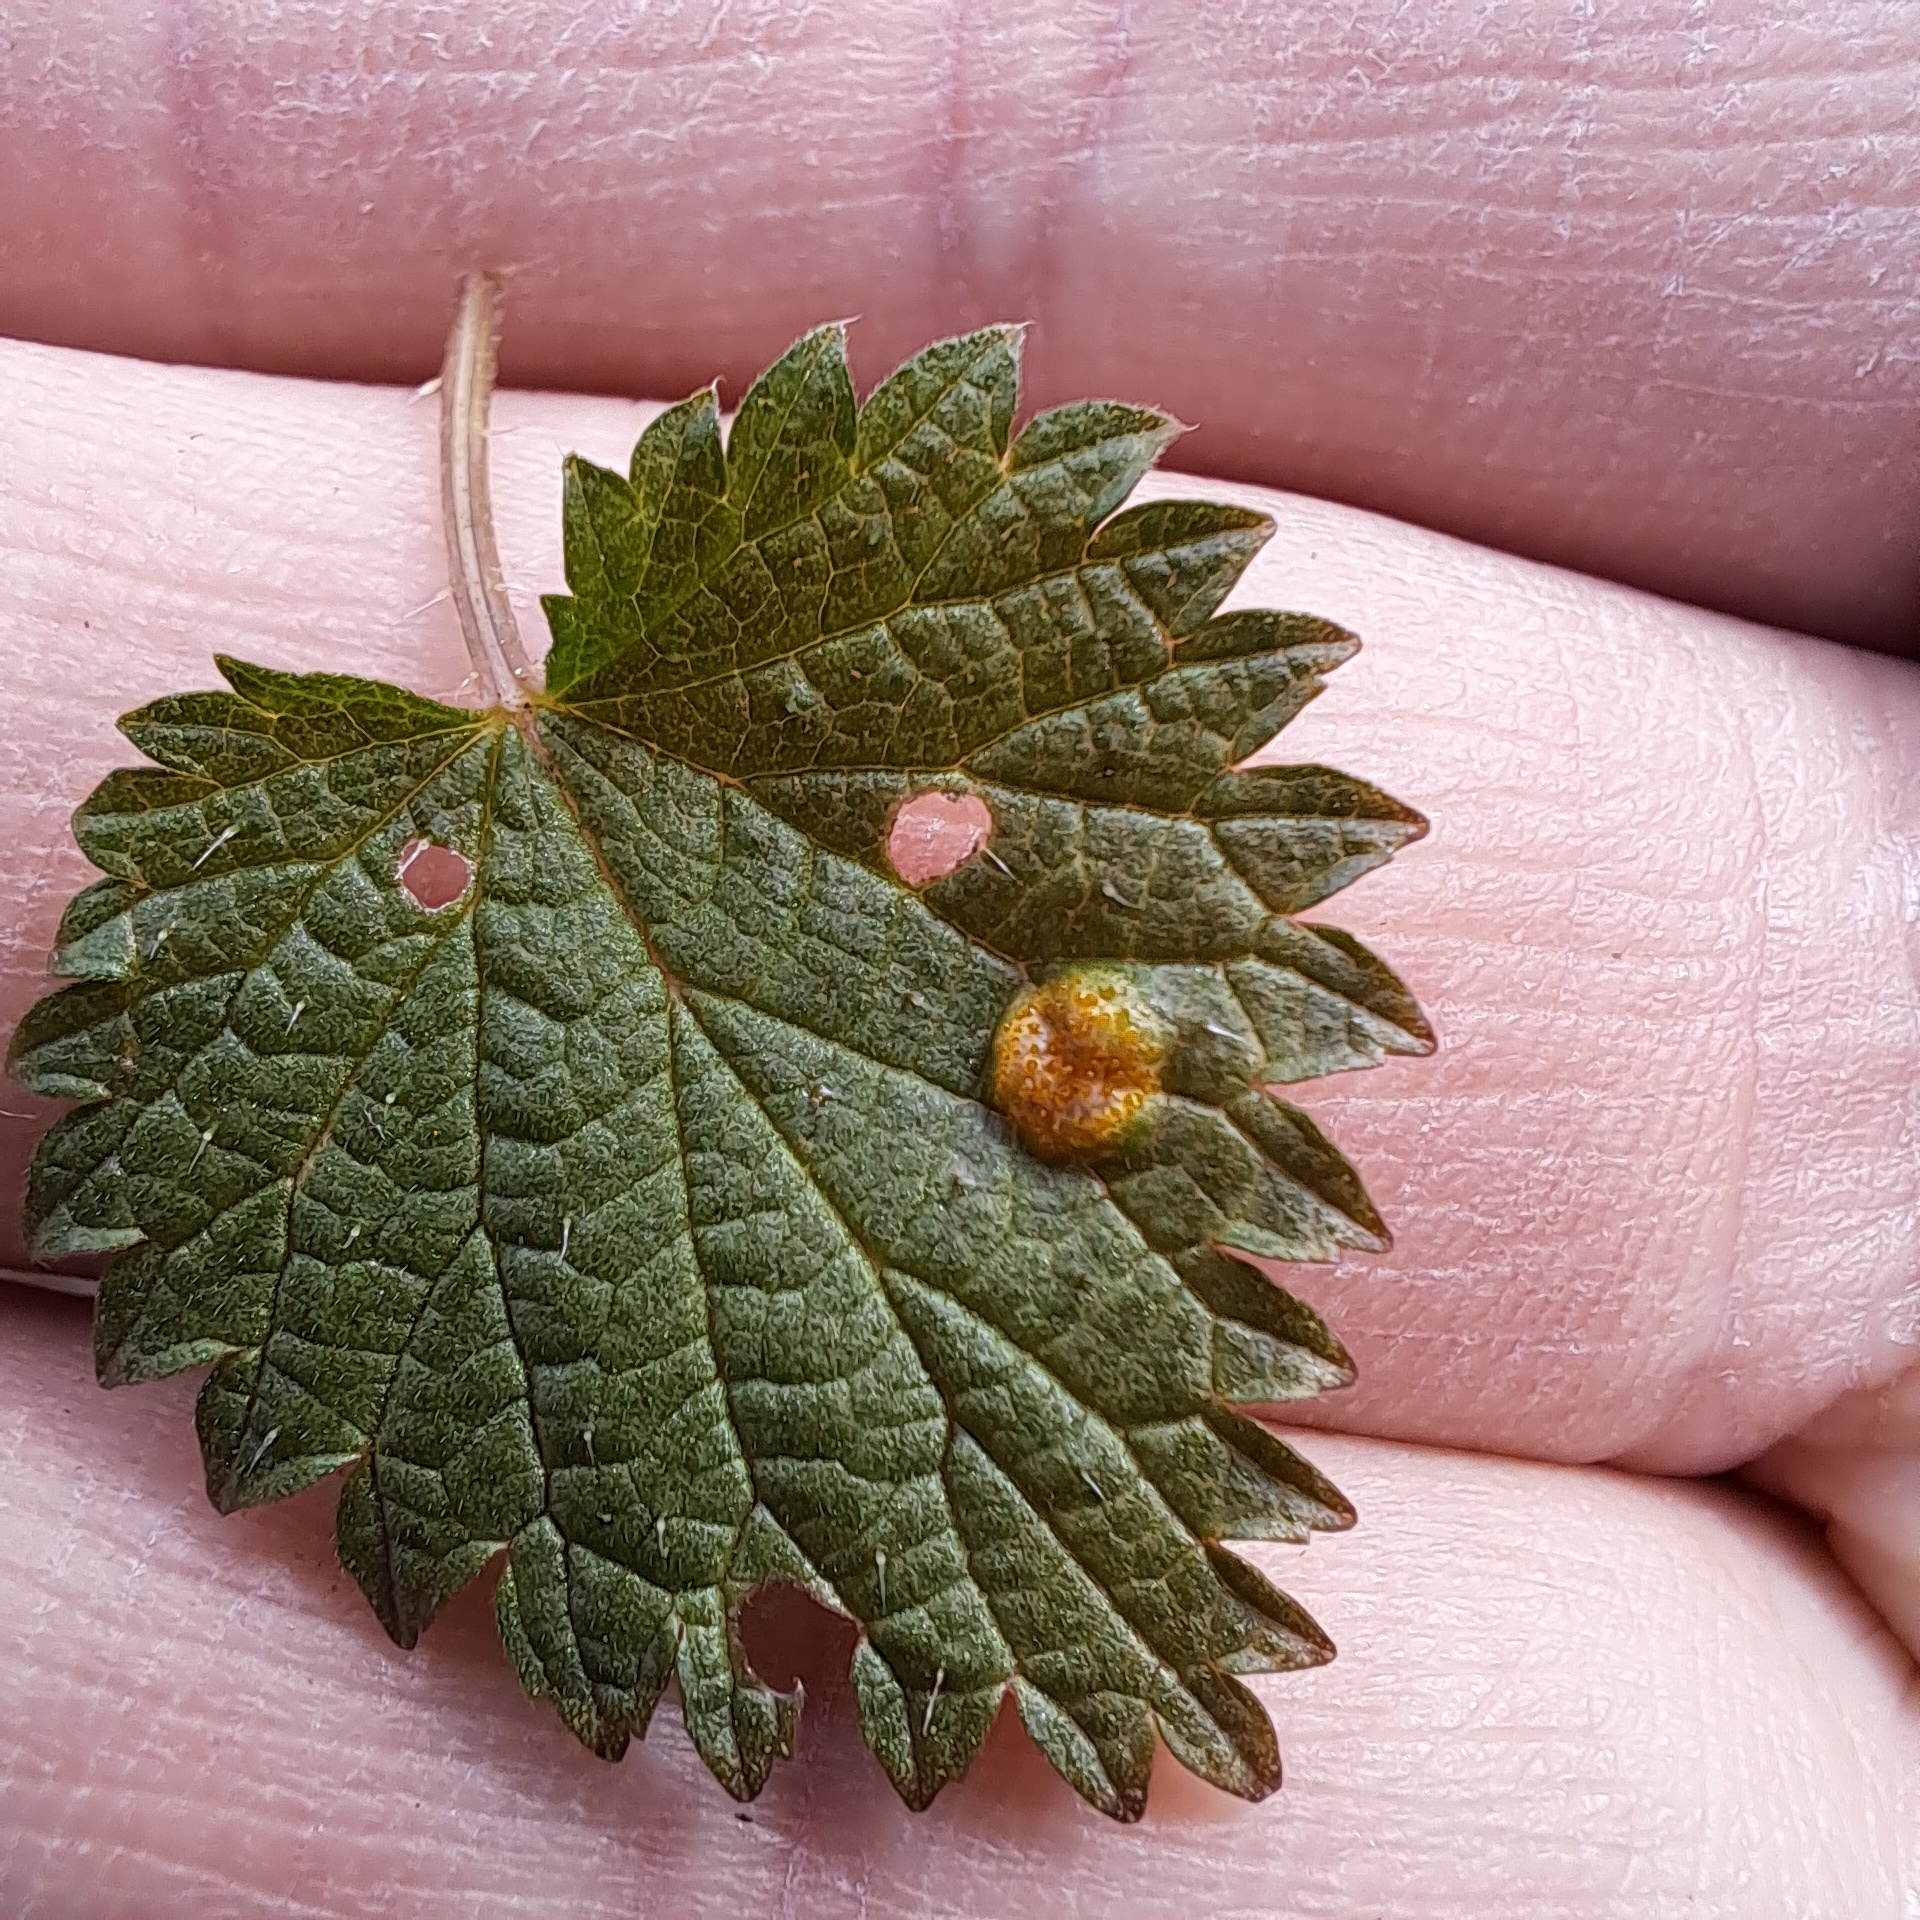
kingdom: Fungi
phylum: Basidiomycota
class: Pucciniomycetes
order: Pucciniales
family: Pucciniaceae
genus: Puccinia
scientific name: Puccinia urticata
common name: Nettle clustercup rust fungus
